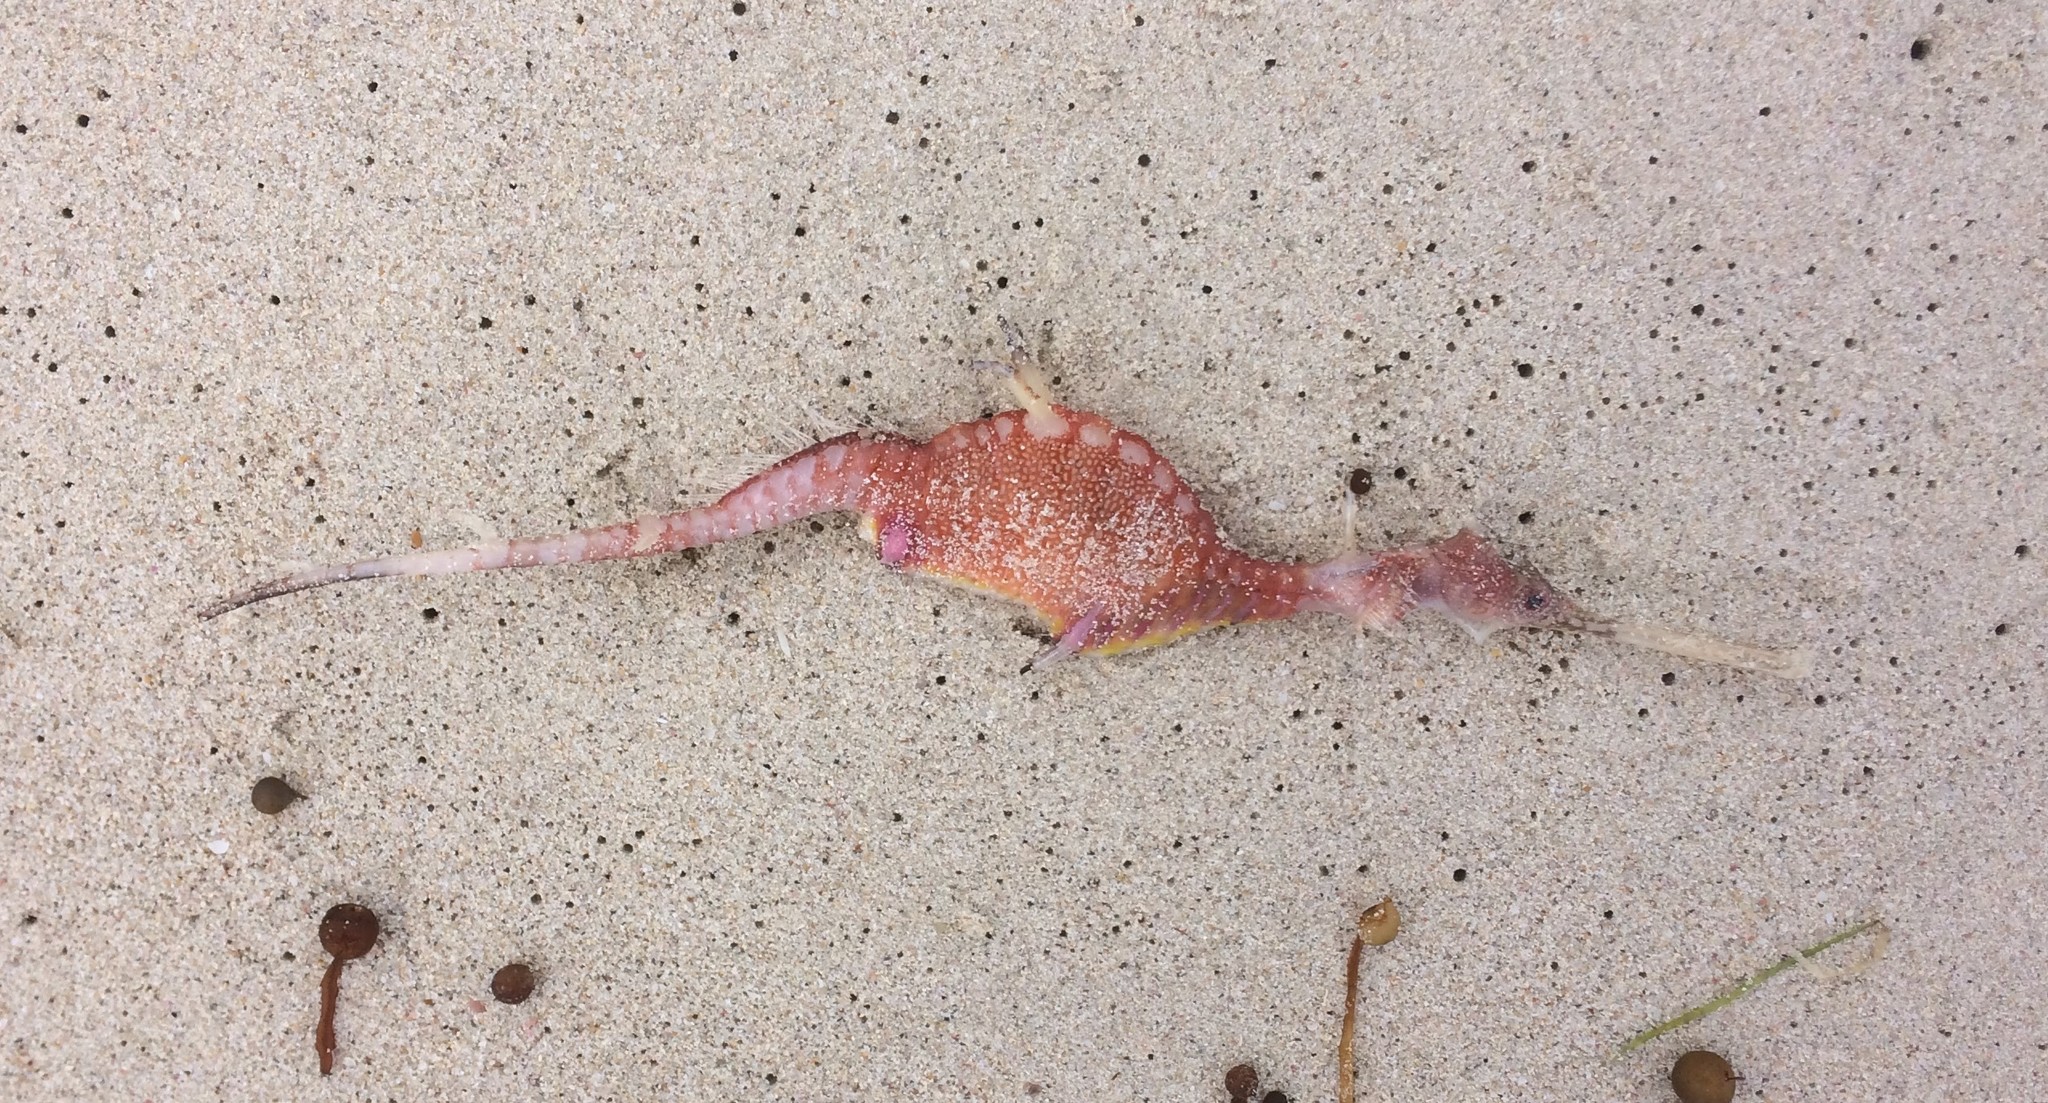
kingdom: Animalia
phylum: Chordata
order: Syngnathiformes
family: Syngnathidae
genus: Phyllopteryx
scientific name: Phyllopteryx taeniolatus
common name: Common seadragon
